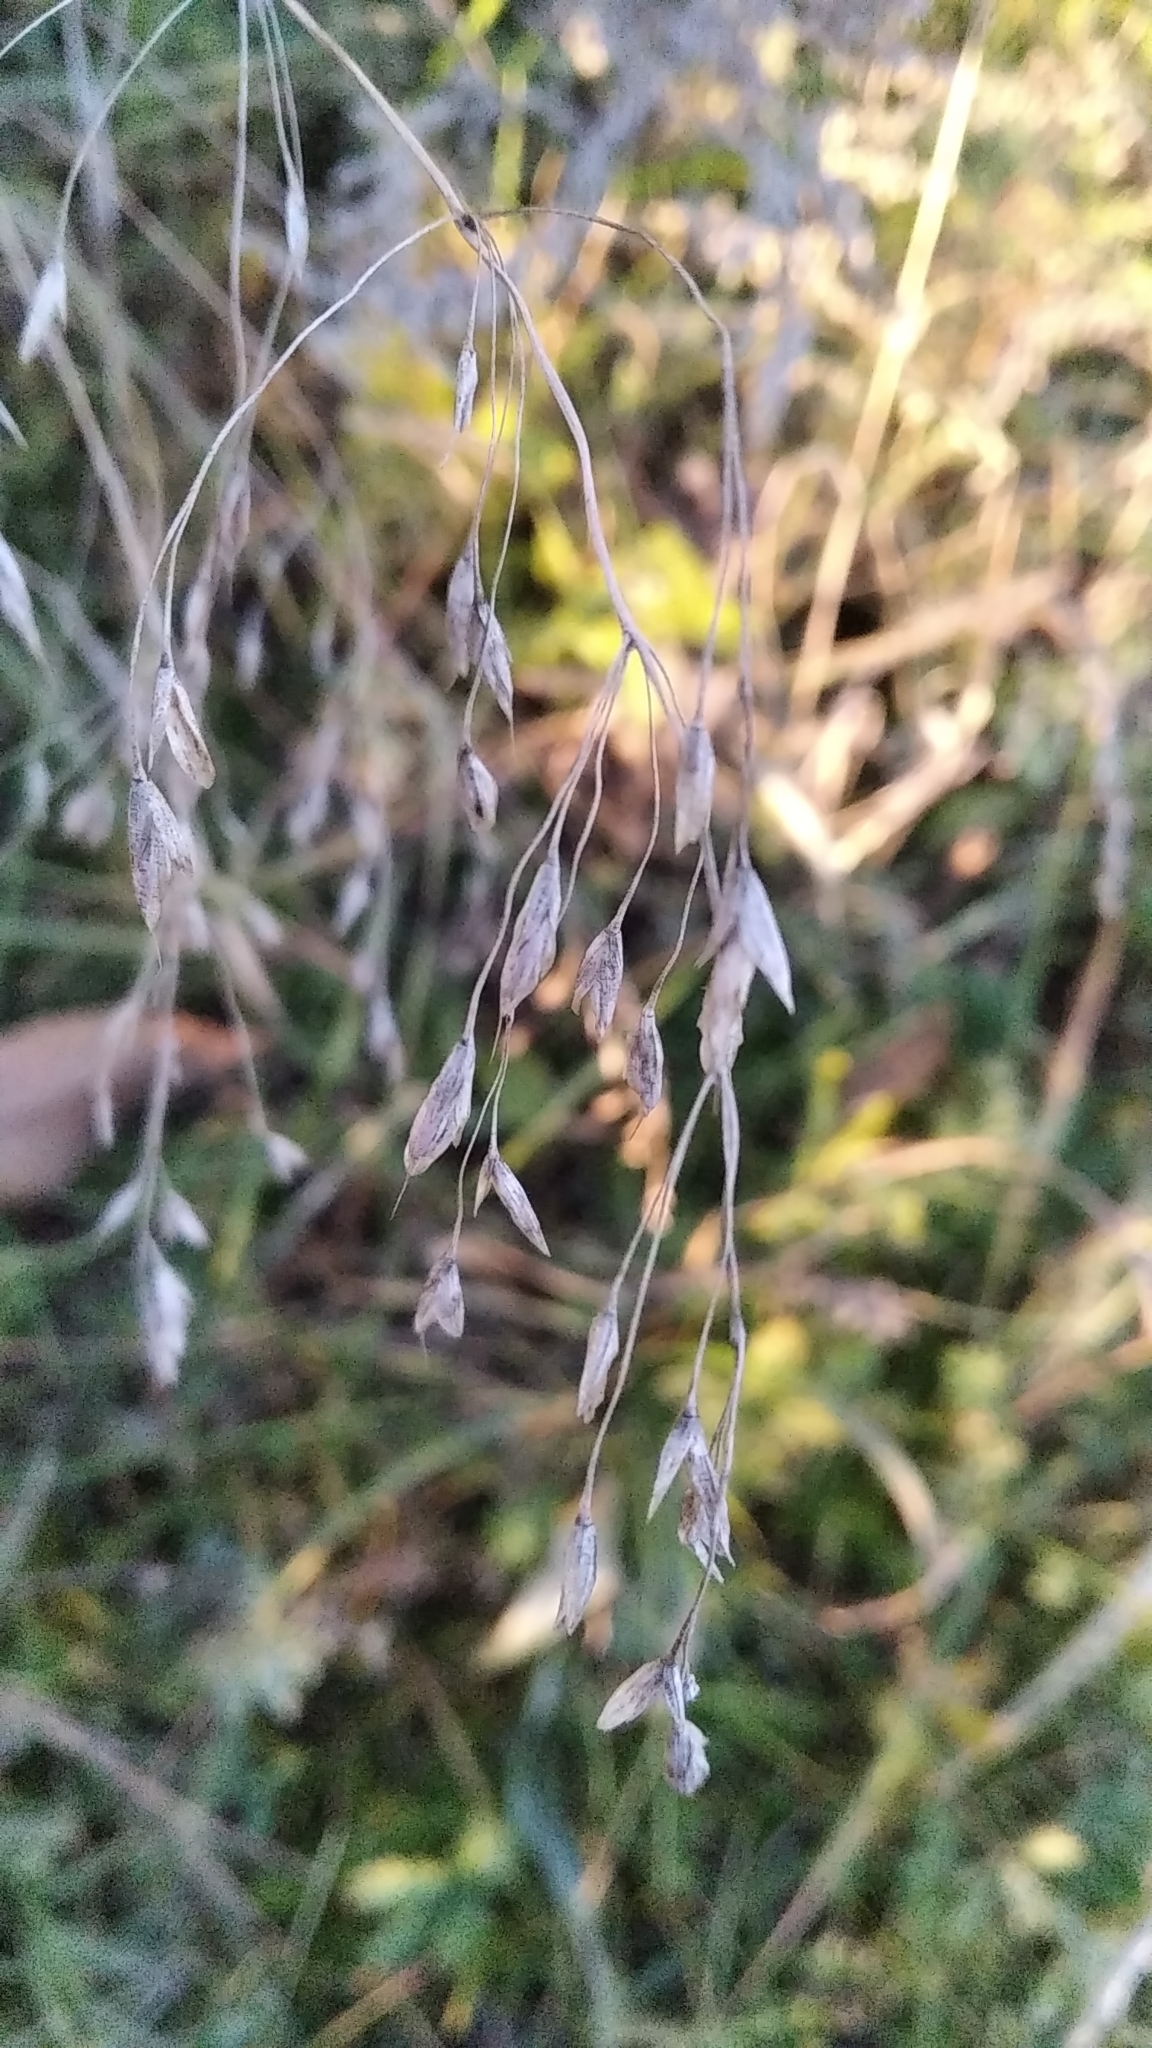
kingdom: Plantae
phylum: Tracheophyta
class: Liliopsida
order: Poales
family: Poaceae
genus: Bromus
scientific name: Bromus japonicus
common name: Japanese brome
